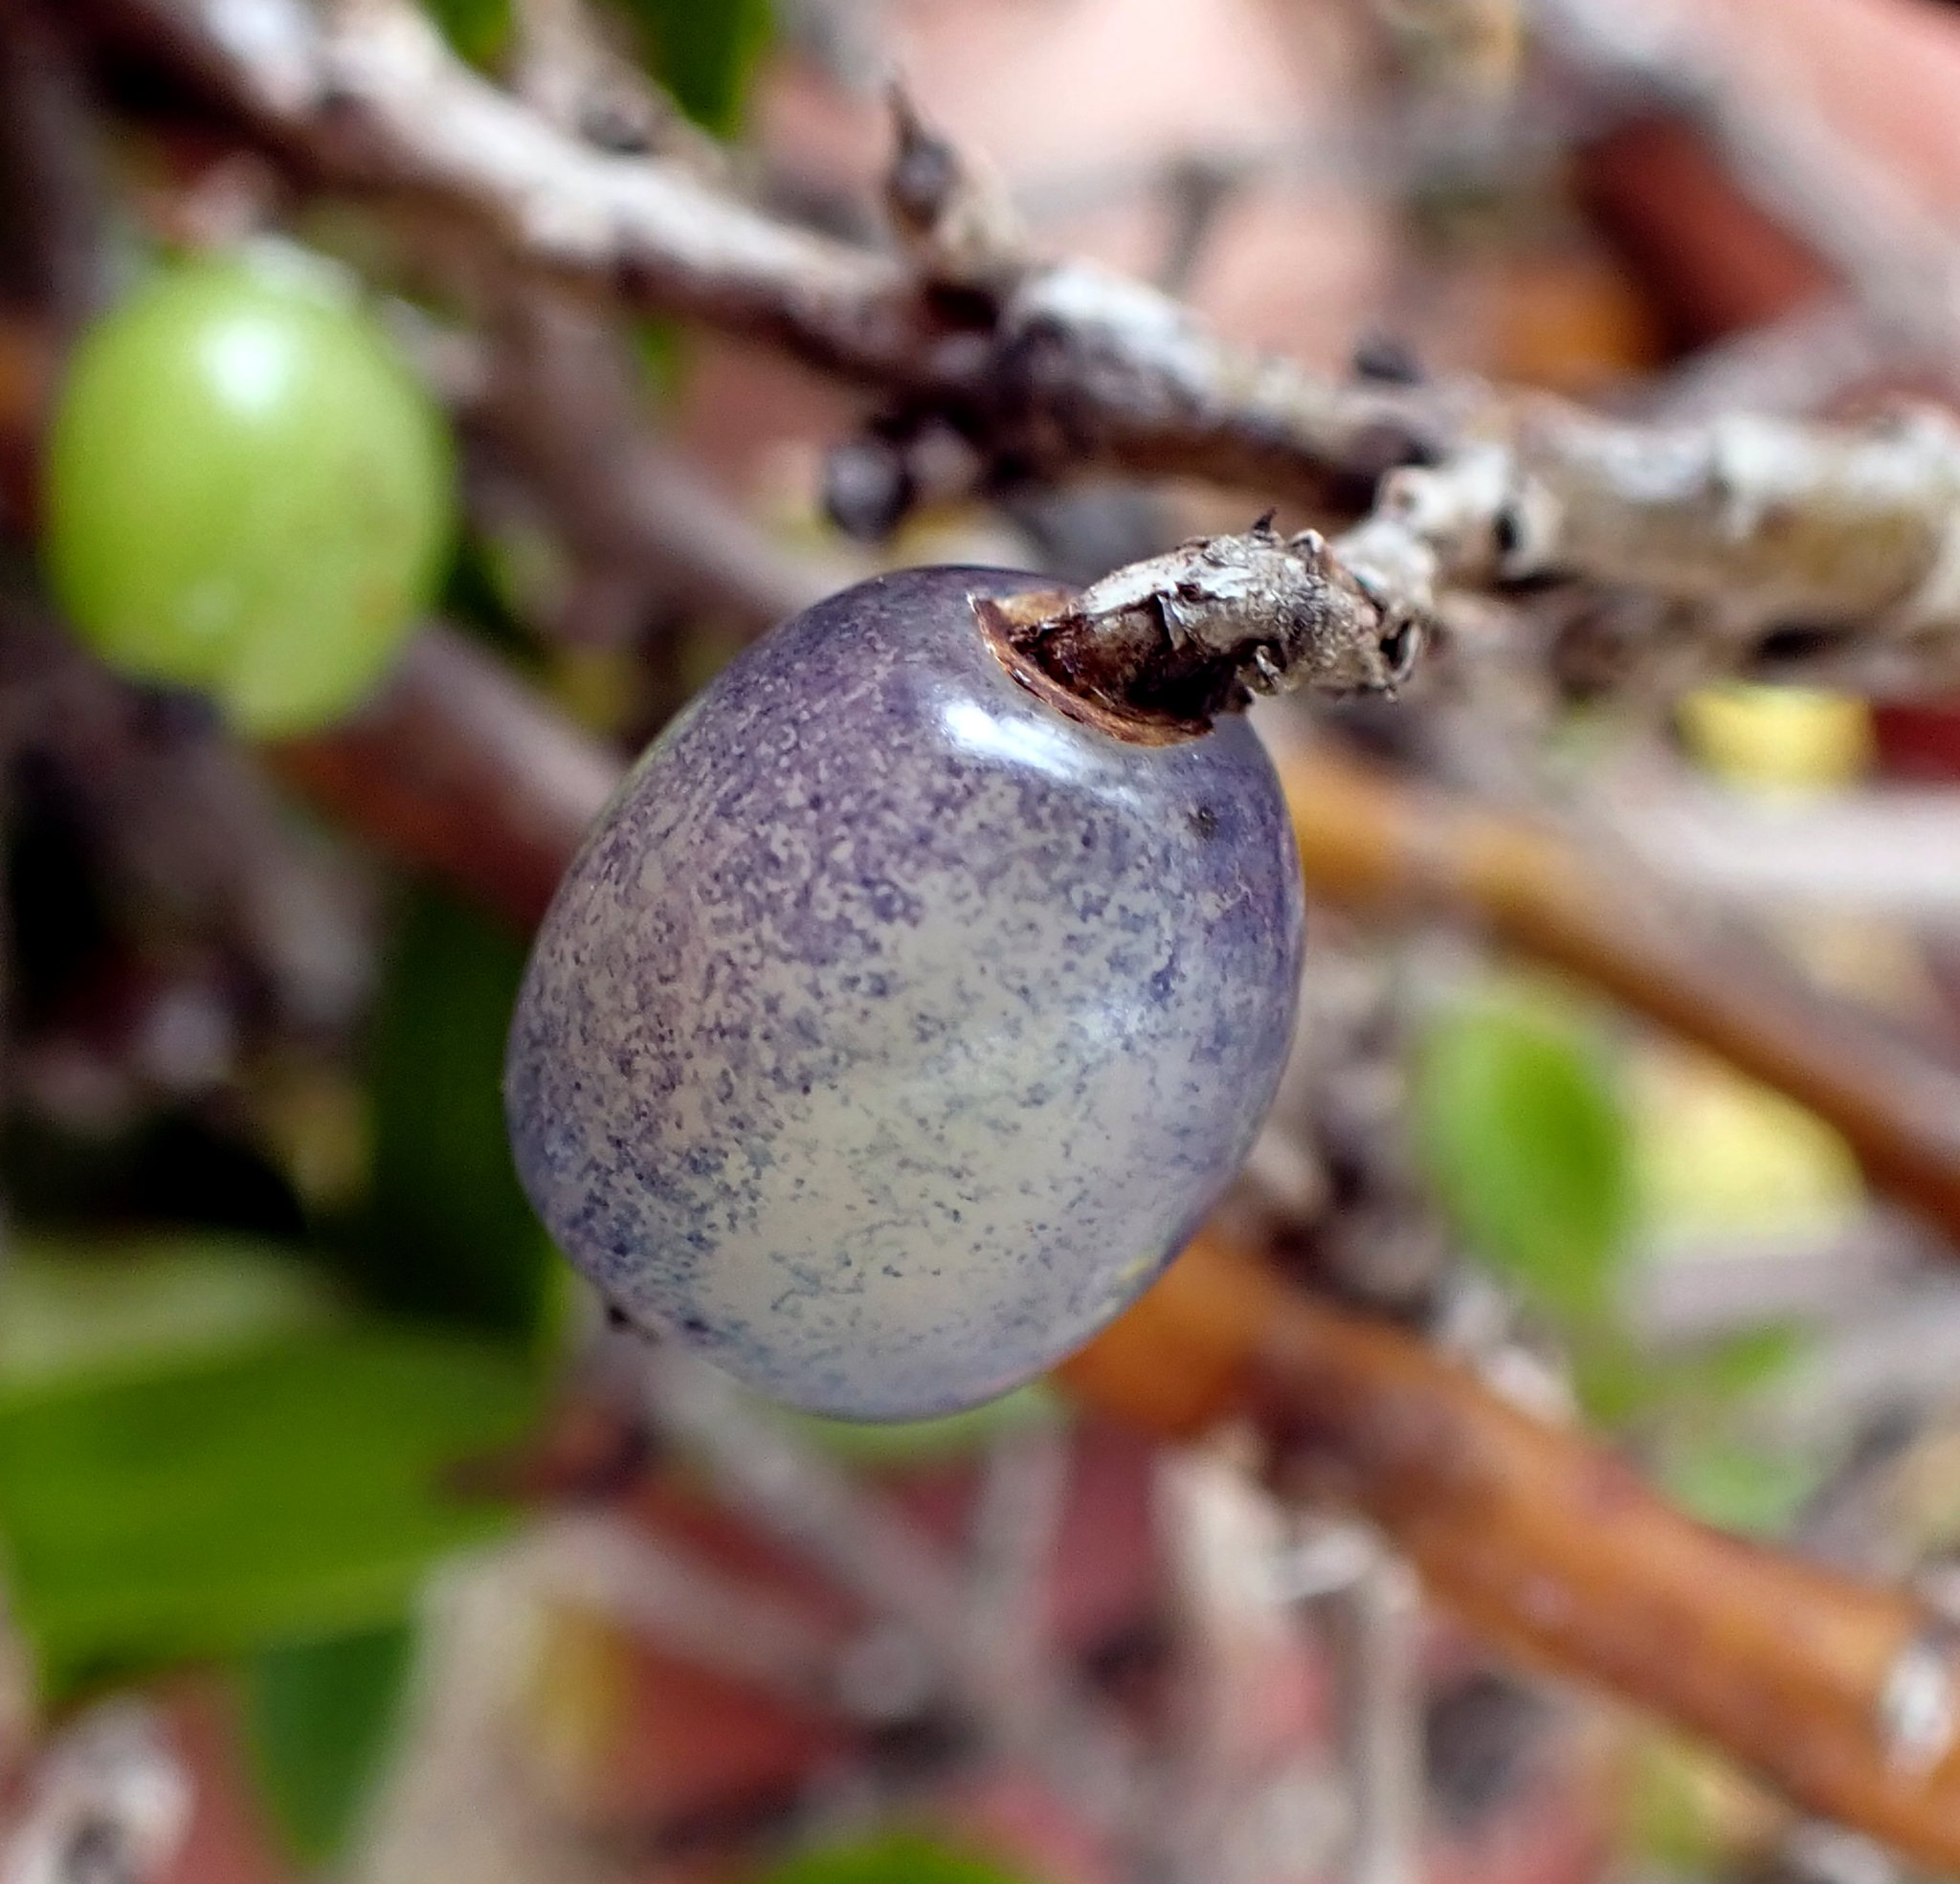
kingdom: Plantae
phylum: Tracheophyta
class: Magnoliopsida
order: Gentianales
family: Rubiaceae
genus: Coprosma
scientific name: Coprosma propinqua
